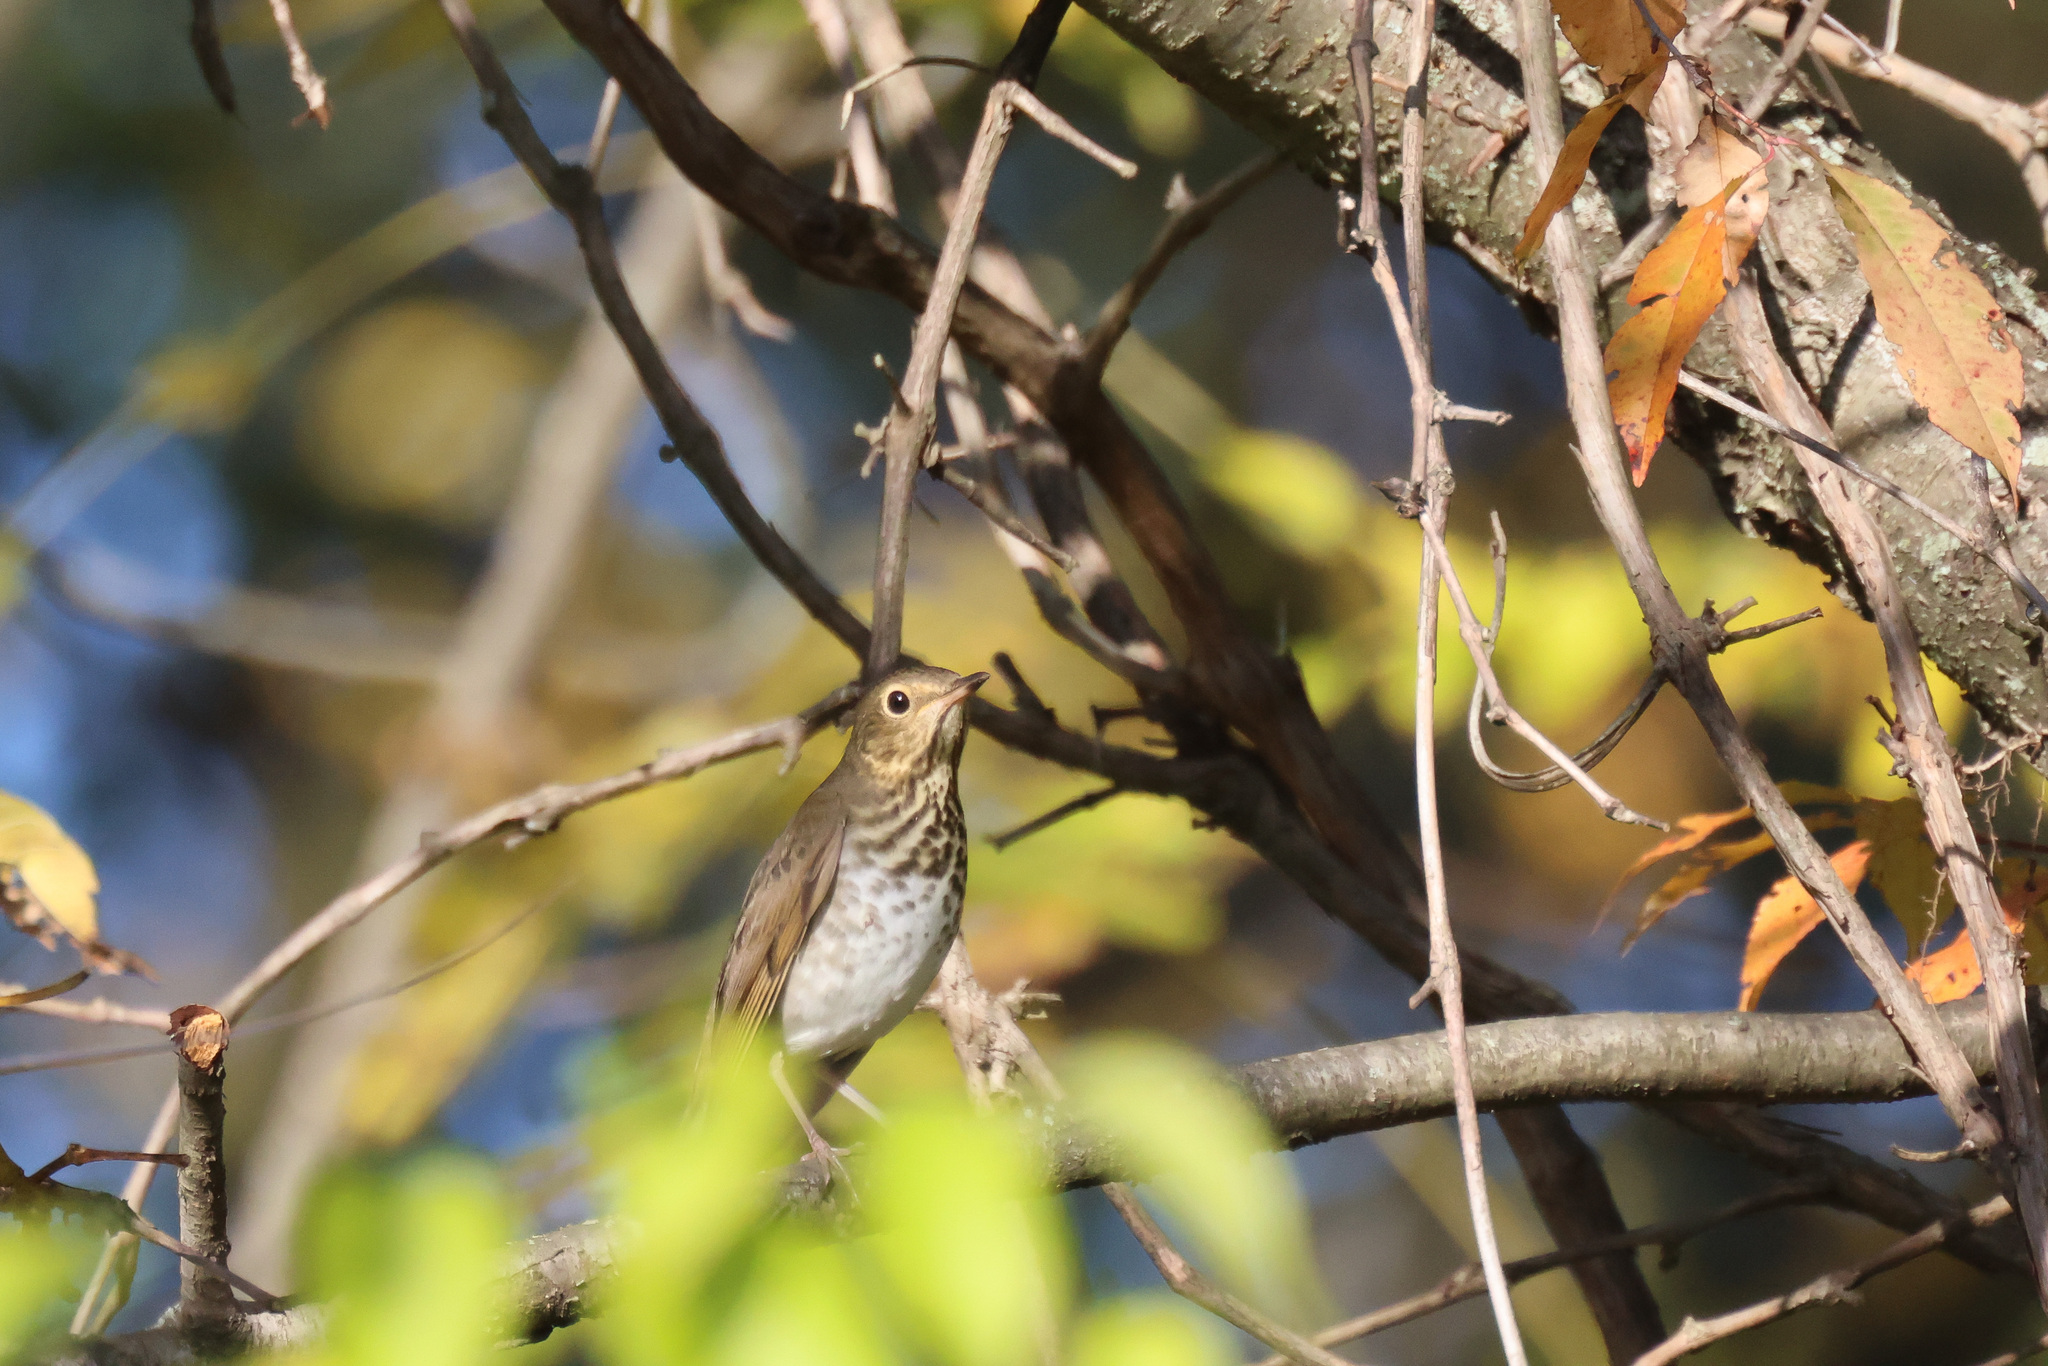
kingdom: Animalia
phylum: Chordata
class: Aves
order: Passeriformes
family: Turdidae
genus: Catharus
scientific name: Catharus ustulatus
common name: Swainson's thrush
